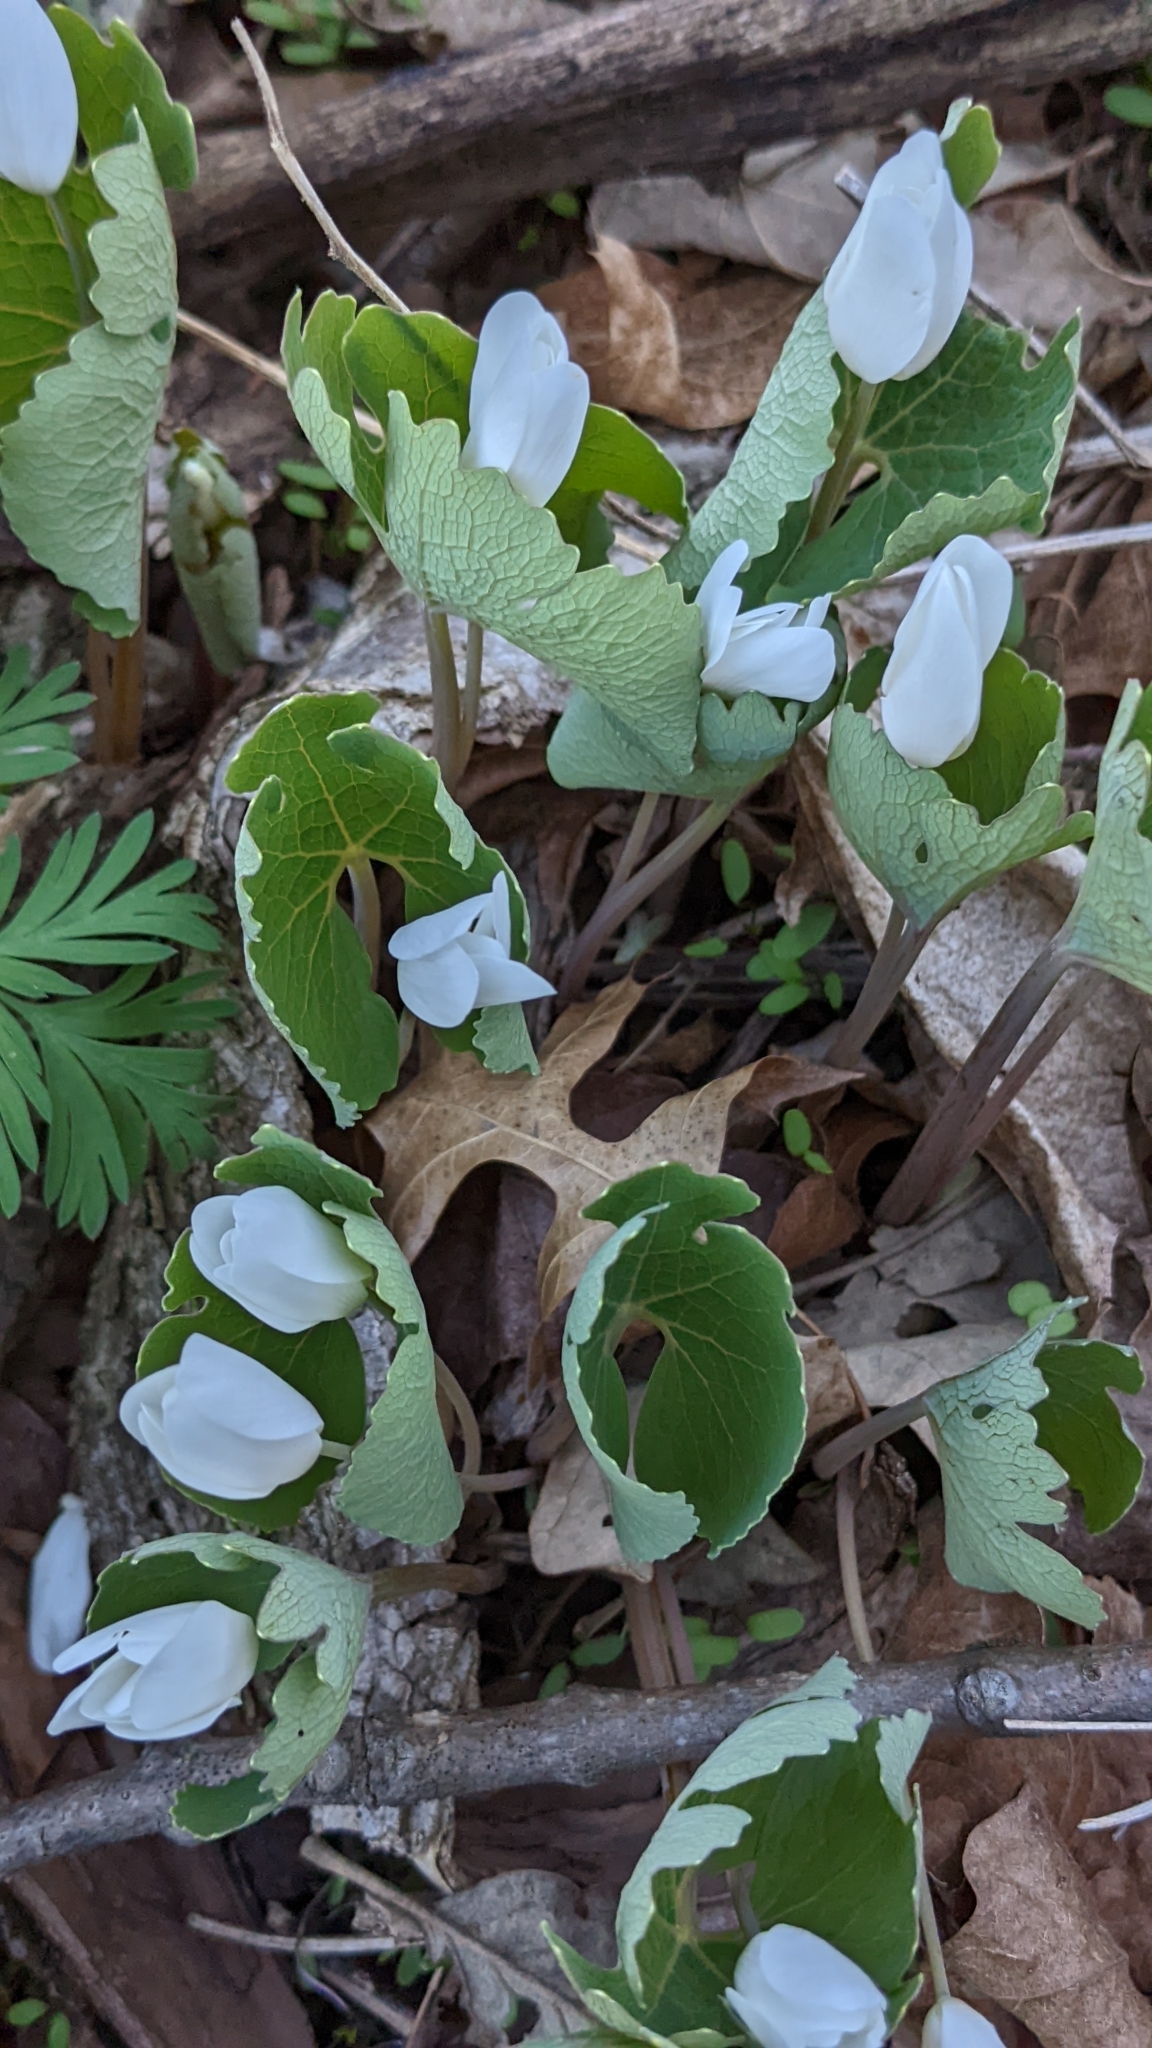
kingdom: Plantae
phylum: Tracheophyta
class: Magnoliopsida
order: Ranunculales
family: Papaveraceae
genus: Sanguinaria
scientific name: Sanguinaria canadensis
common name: Bloodroot
